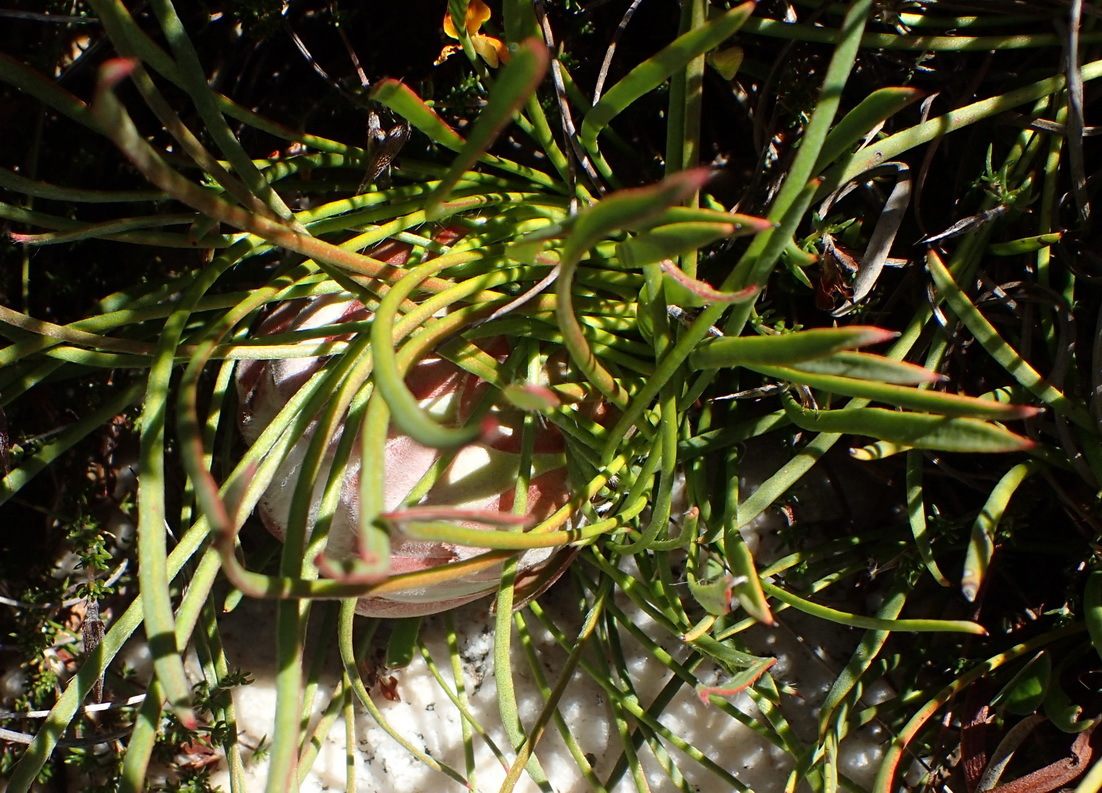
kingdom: Plantae
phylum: Tracheophyta
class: Magnoliopsida
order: Proteales
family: Proteaceae
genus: Protea
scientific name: Protea montana
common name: Swartberg sugarbush
